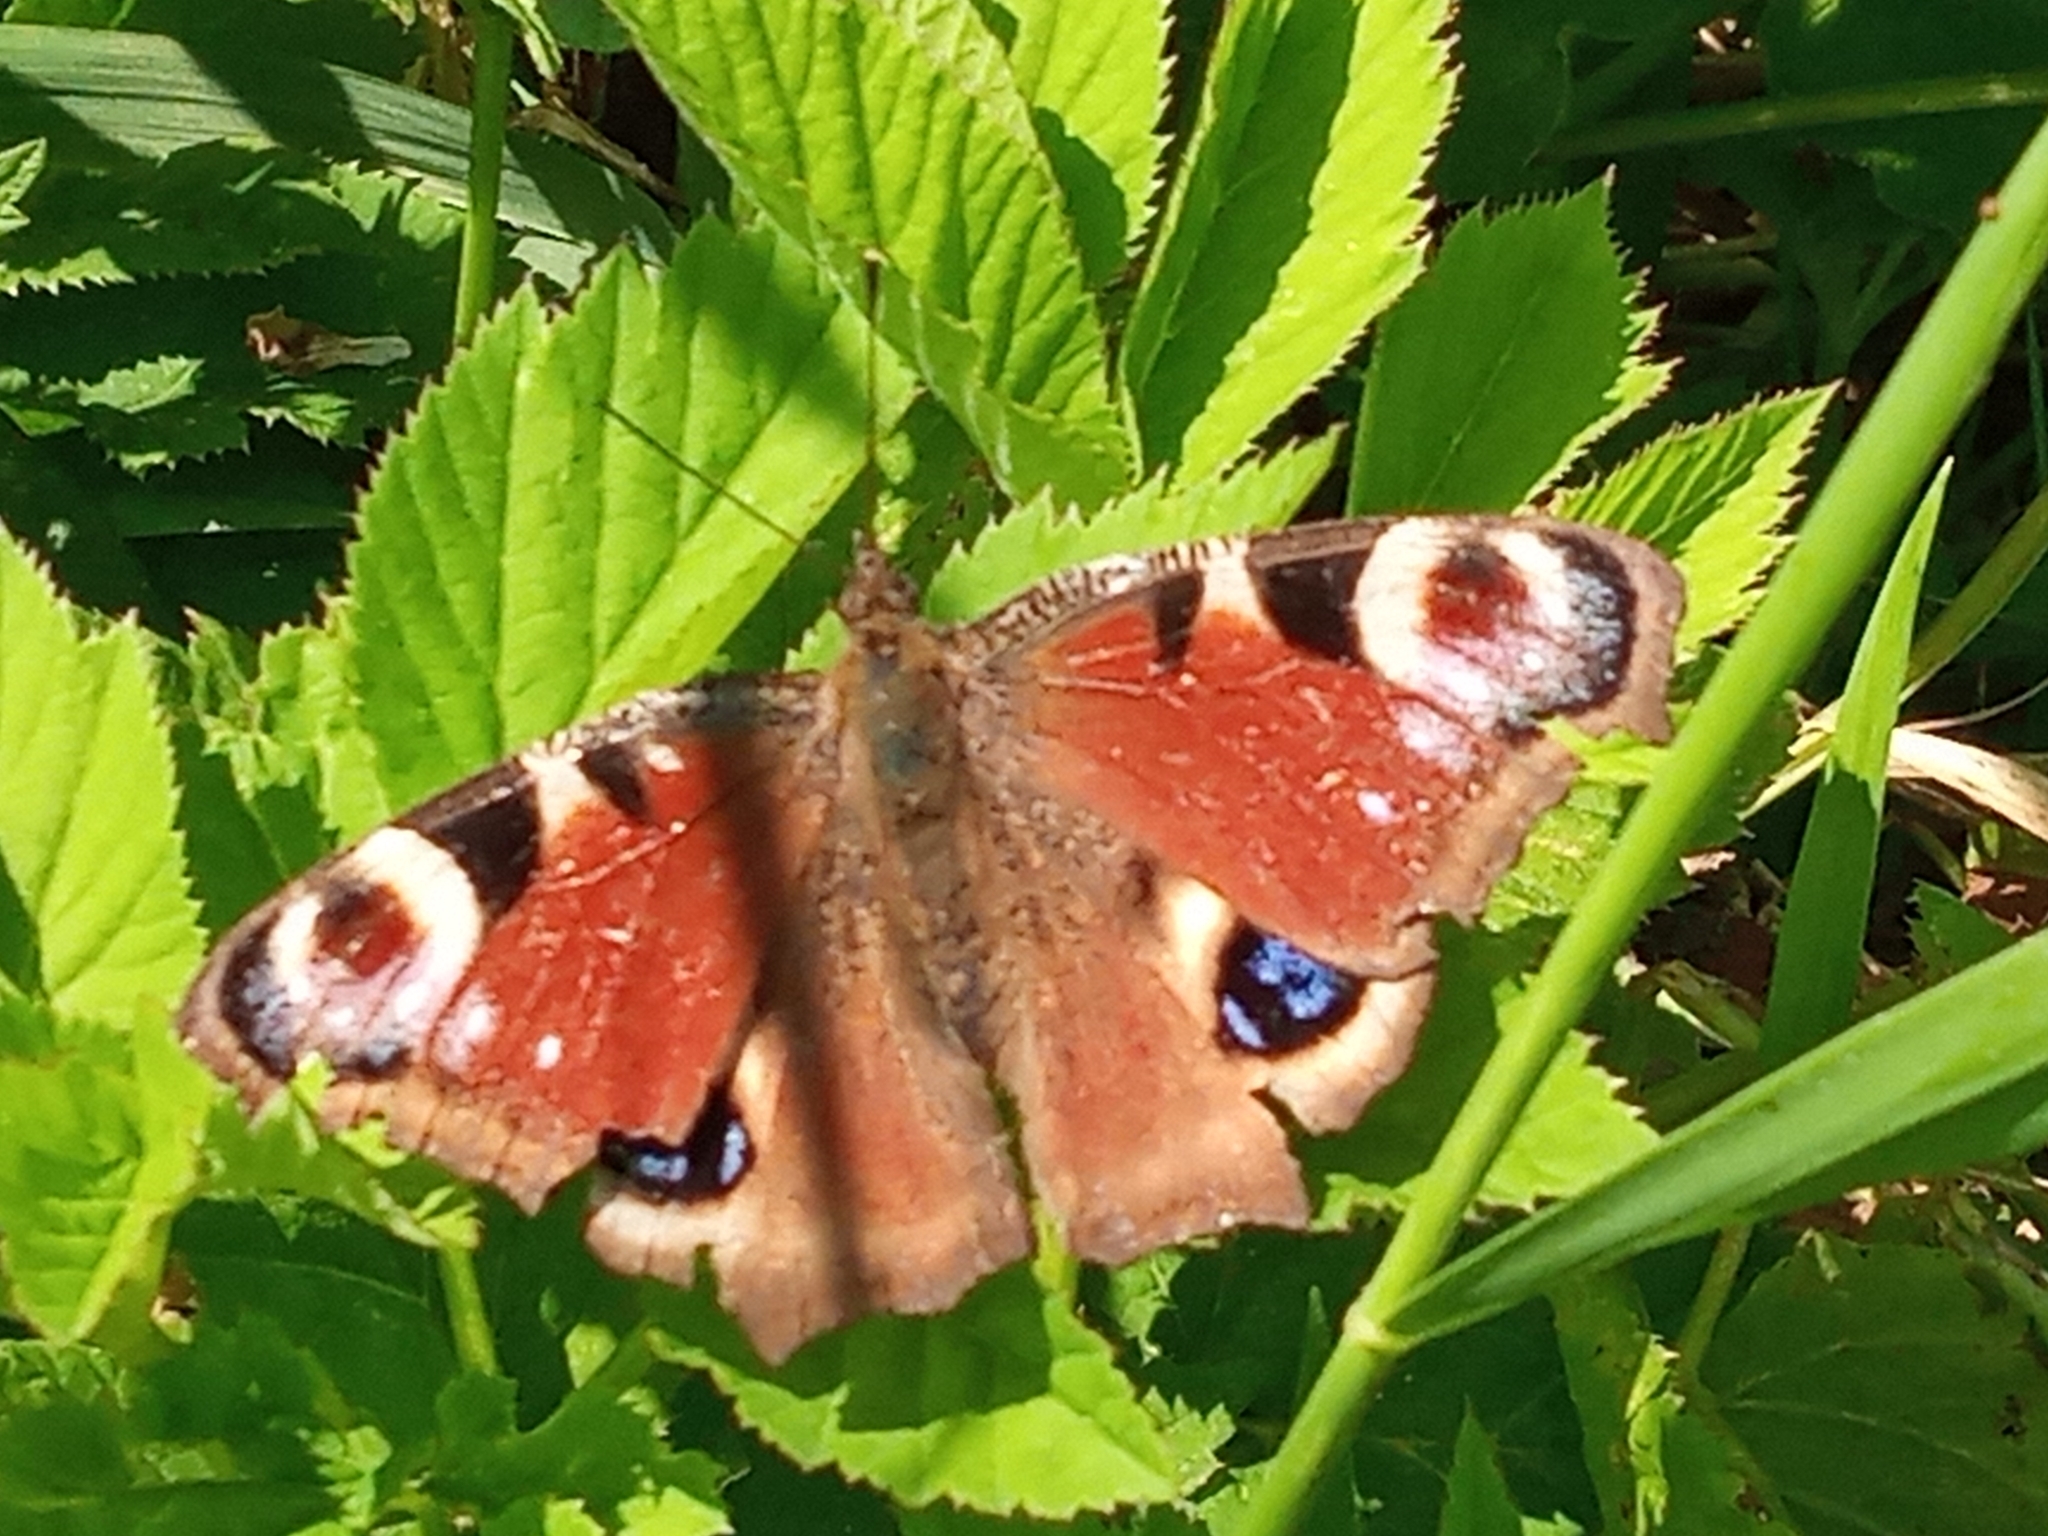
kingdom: Animalia
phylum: Arthropoda
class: Insecta
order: Lepidoptera
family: Nymphalidae
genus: Aglais
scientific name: Aglais io
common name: Peacock
